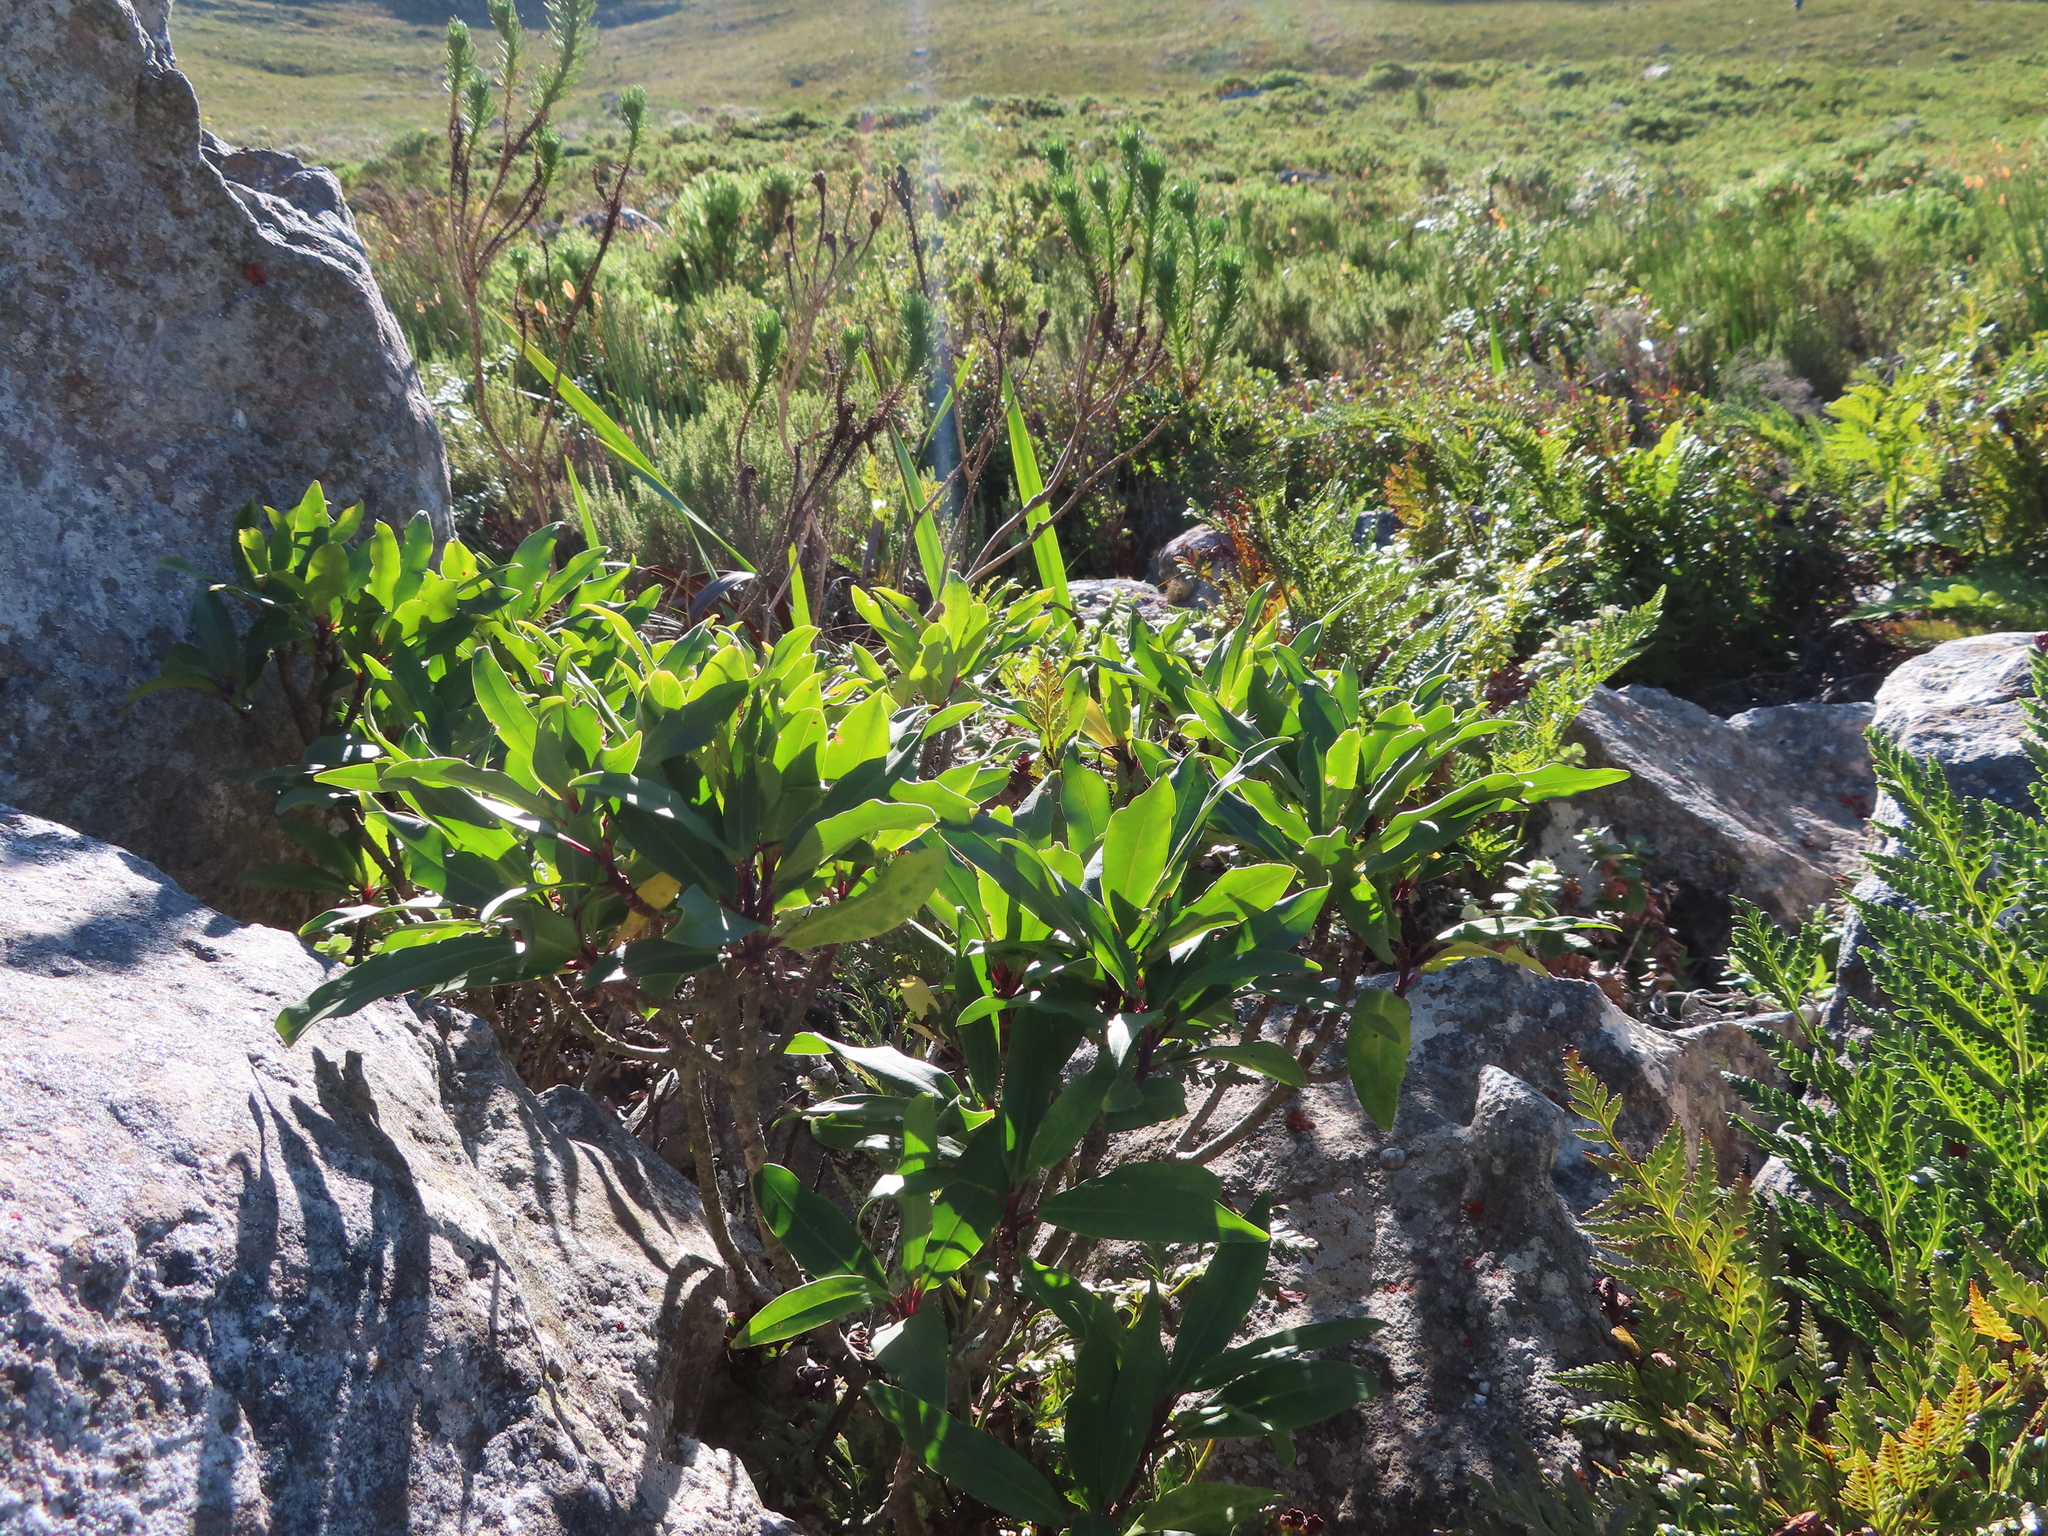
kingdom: Plantae
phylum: Tracheophyta
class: Magnoliopsida
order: Ericales
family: Primulaceae
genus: Myrsine
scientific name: Myrsine melanophloeos
